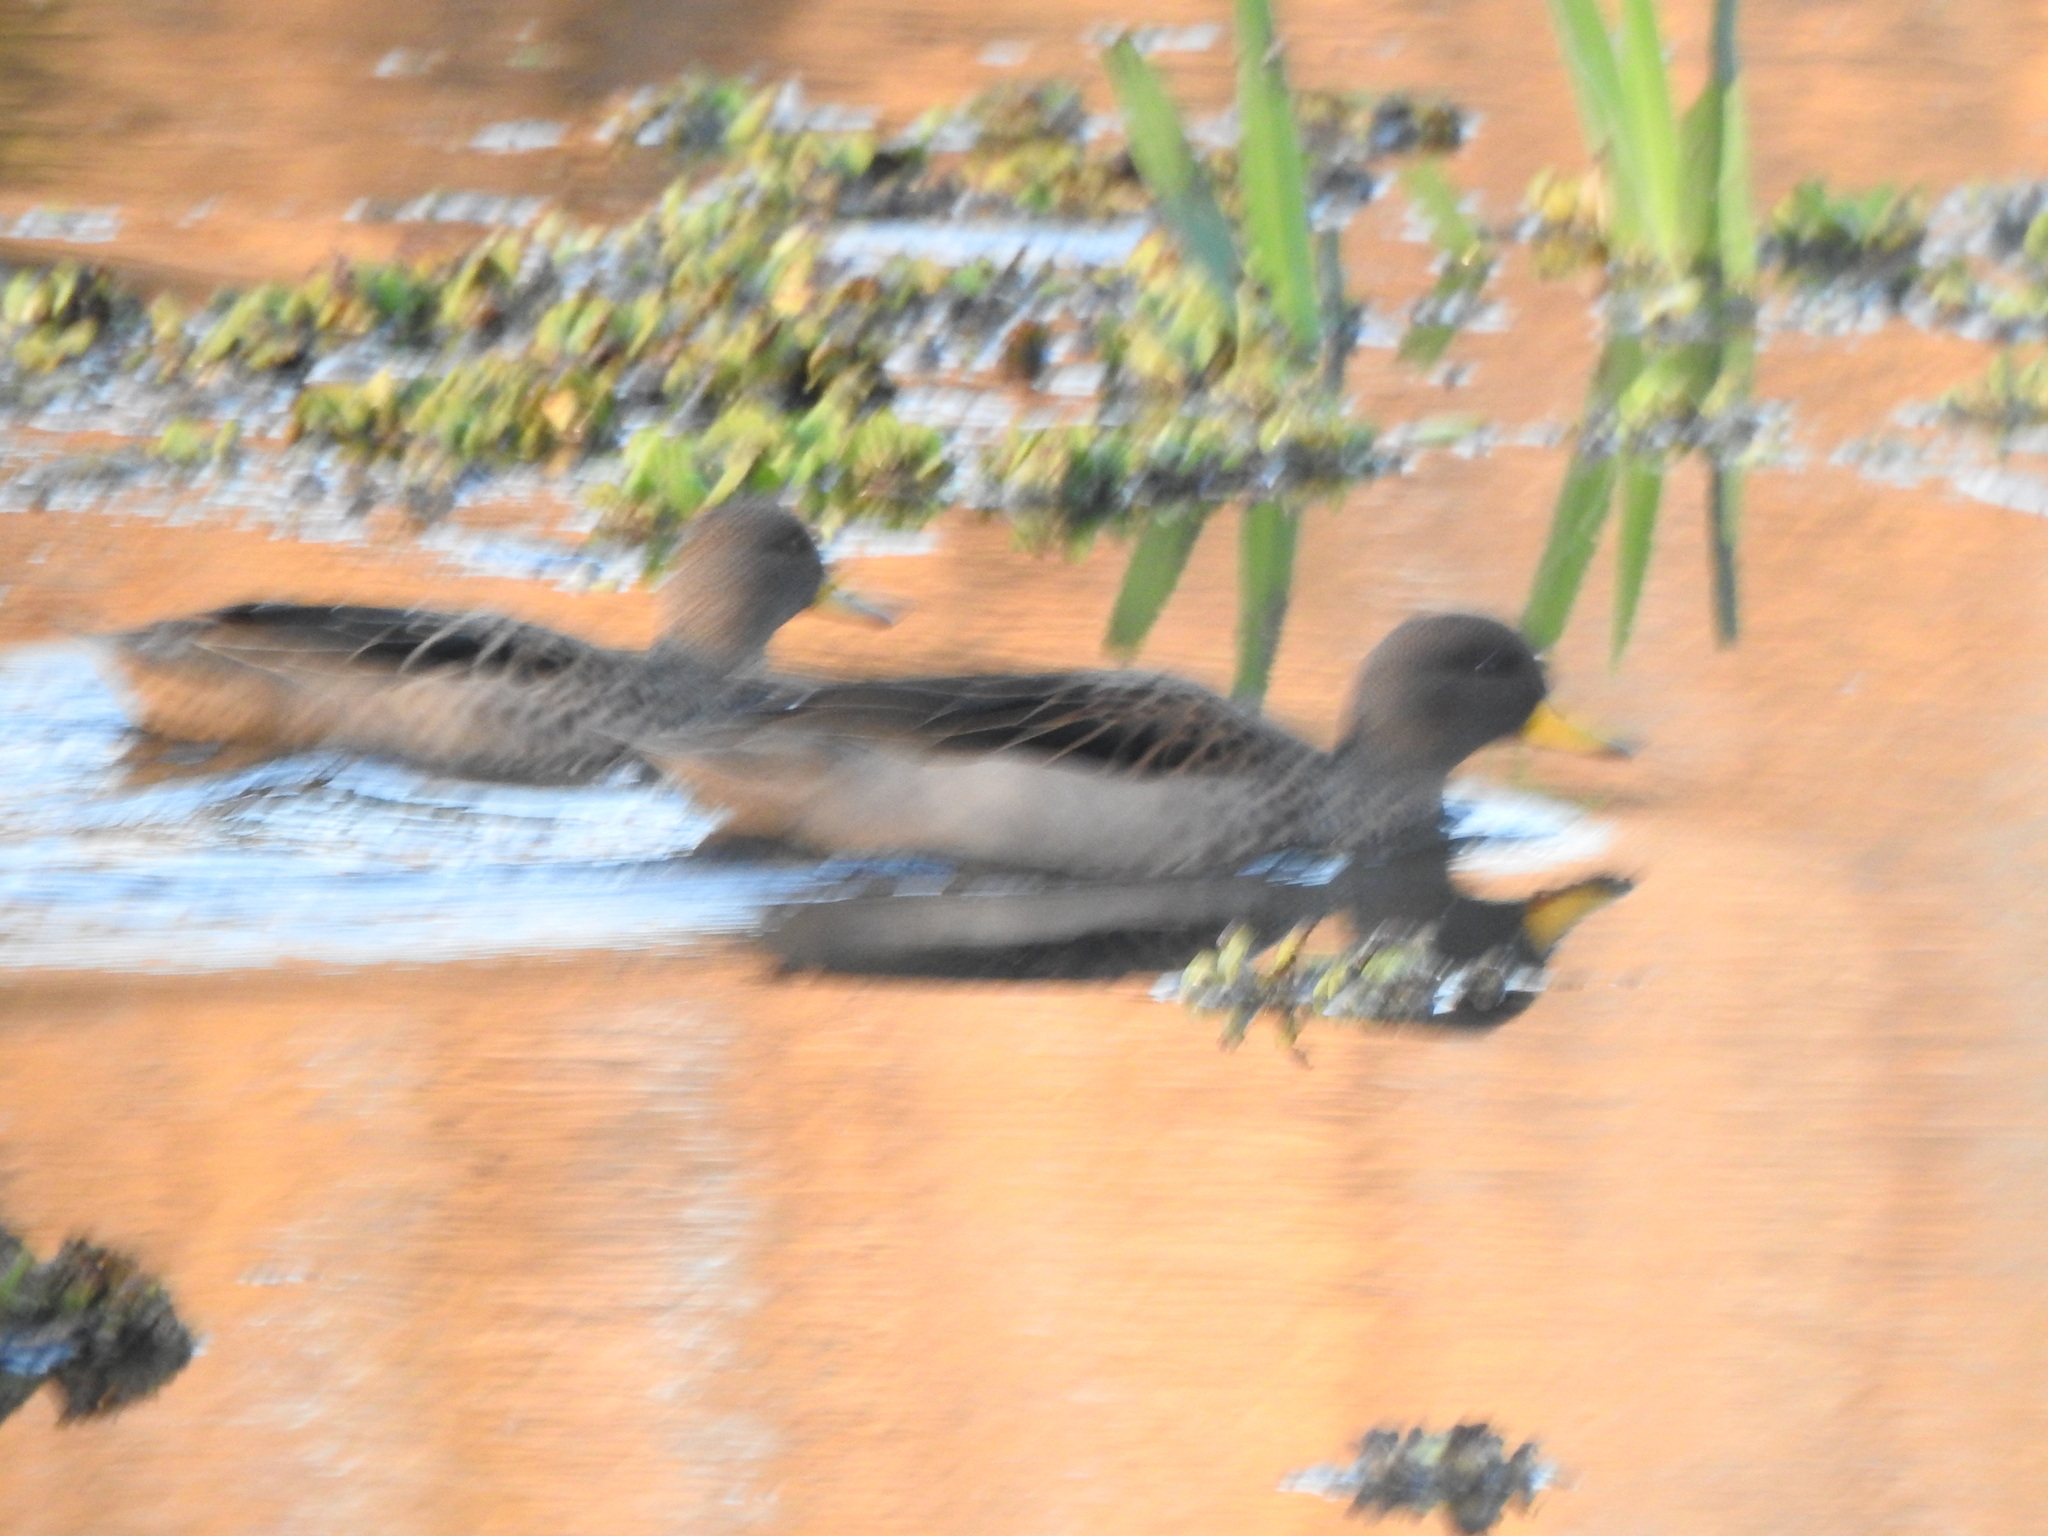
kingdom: Animalia
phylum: Chordata
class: Aves
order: Anseriformes
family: Anatidae
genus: Anas
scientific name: Anas flavirostris
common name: Yellow-billed teal
